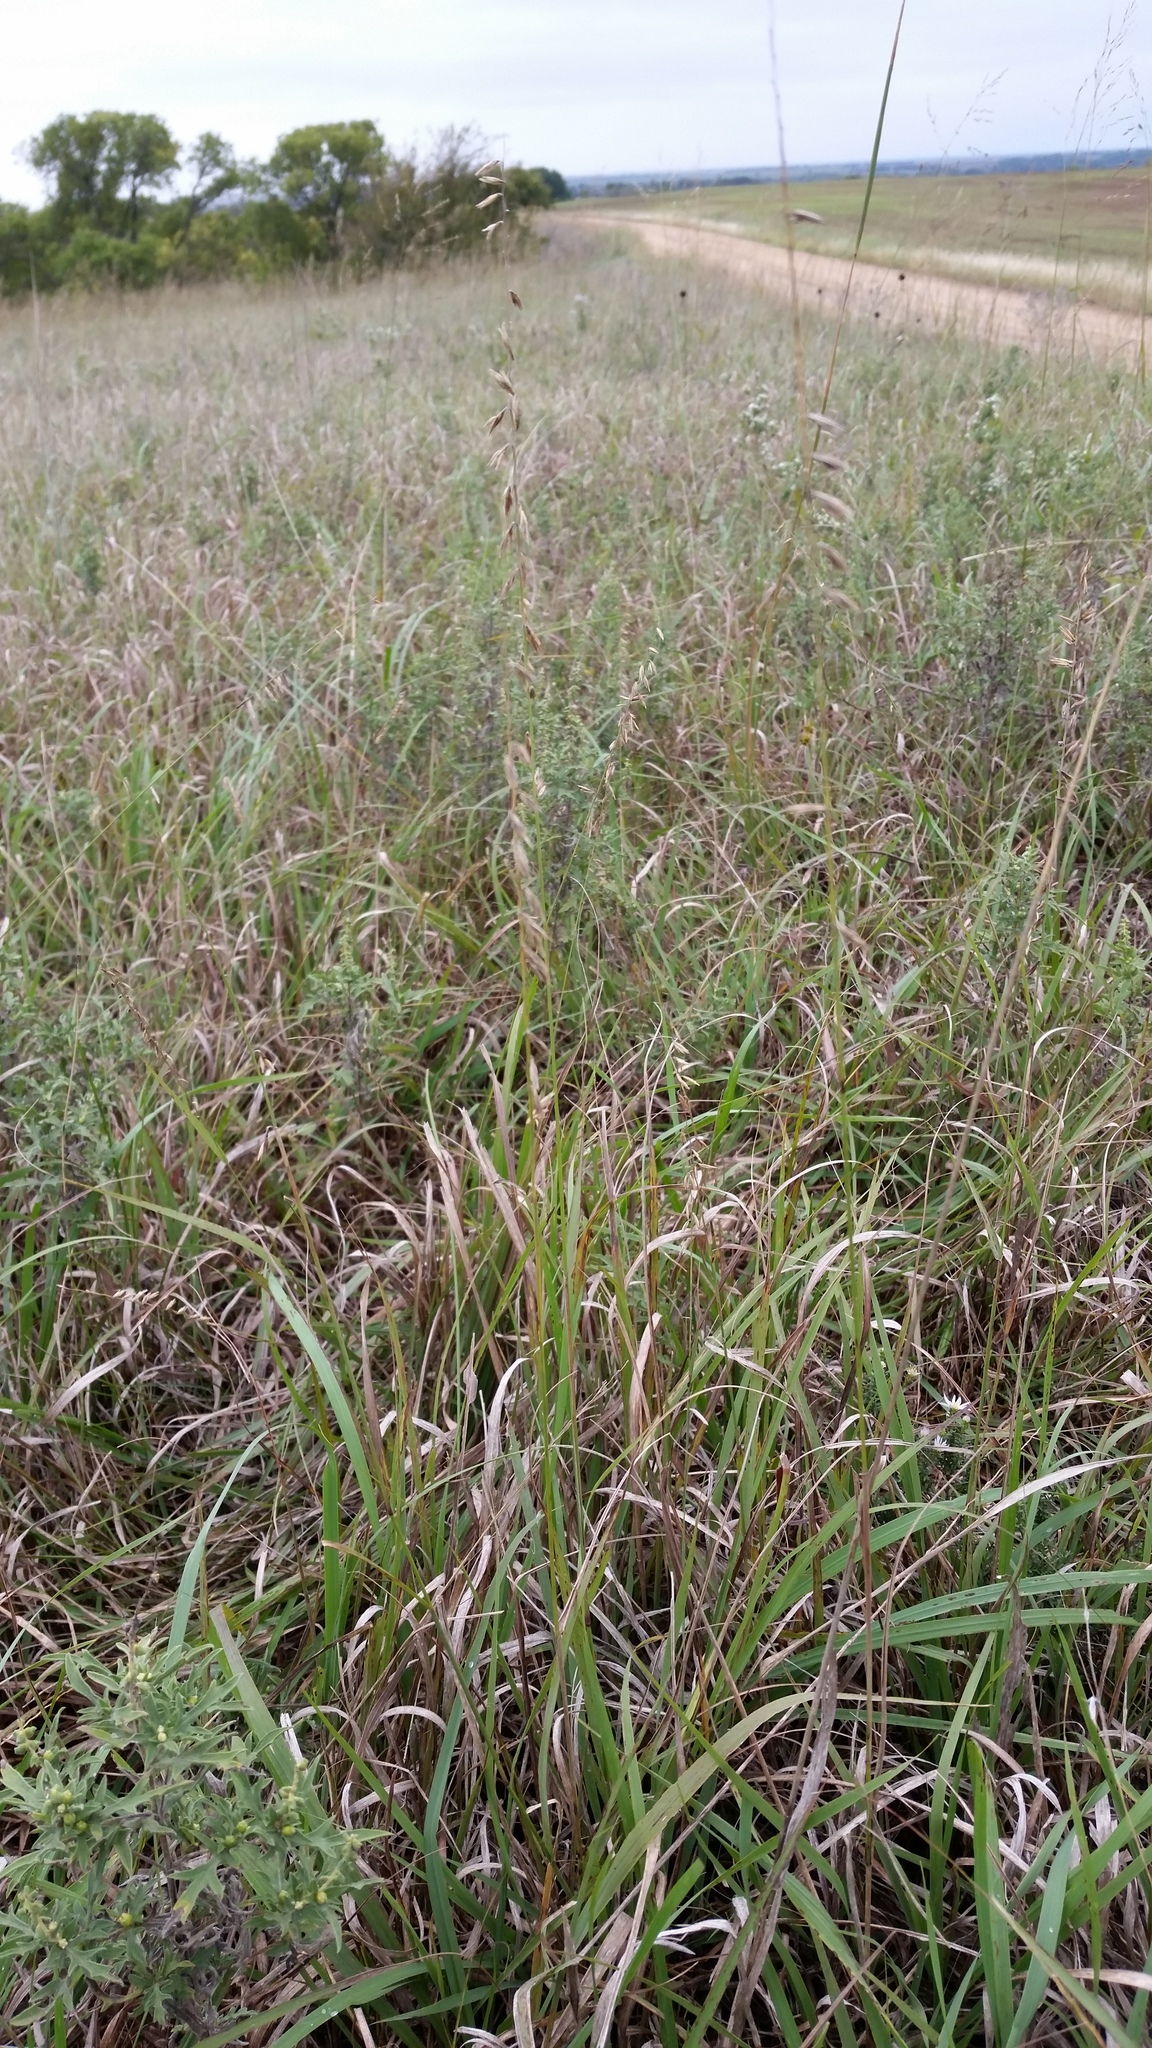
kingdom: Plantae
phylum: Tracheophyta
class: Liliopsida
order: Poales
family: Poaceae
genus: Bouteloua
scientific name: Bouteloua curtipendula
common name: Side-oats grama
